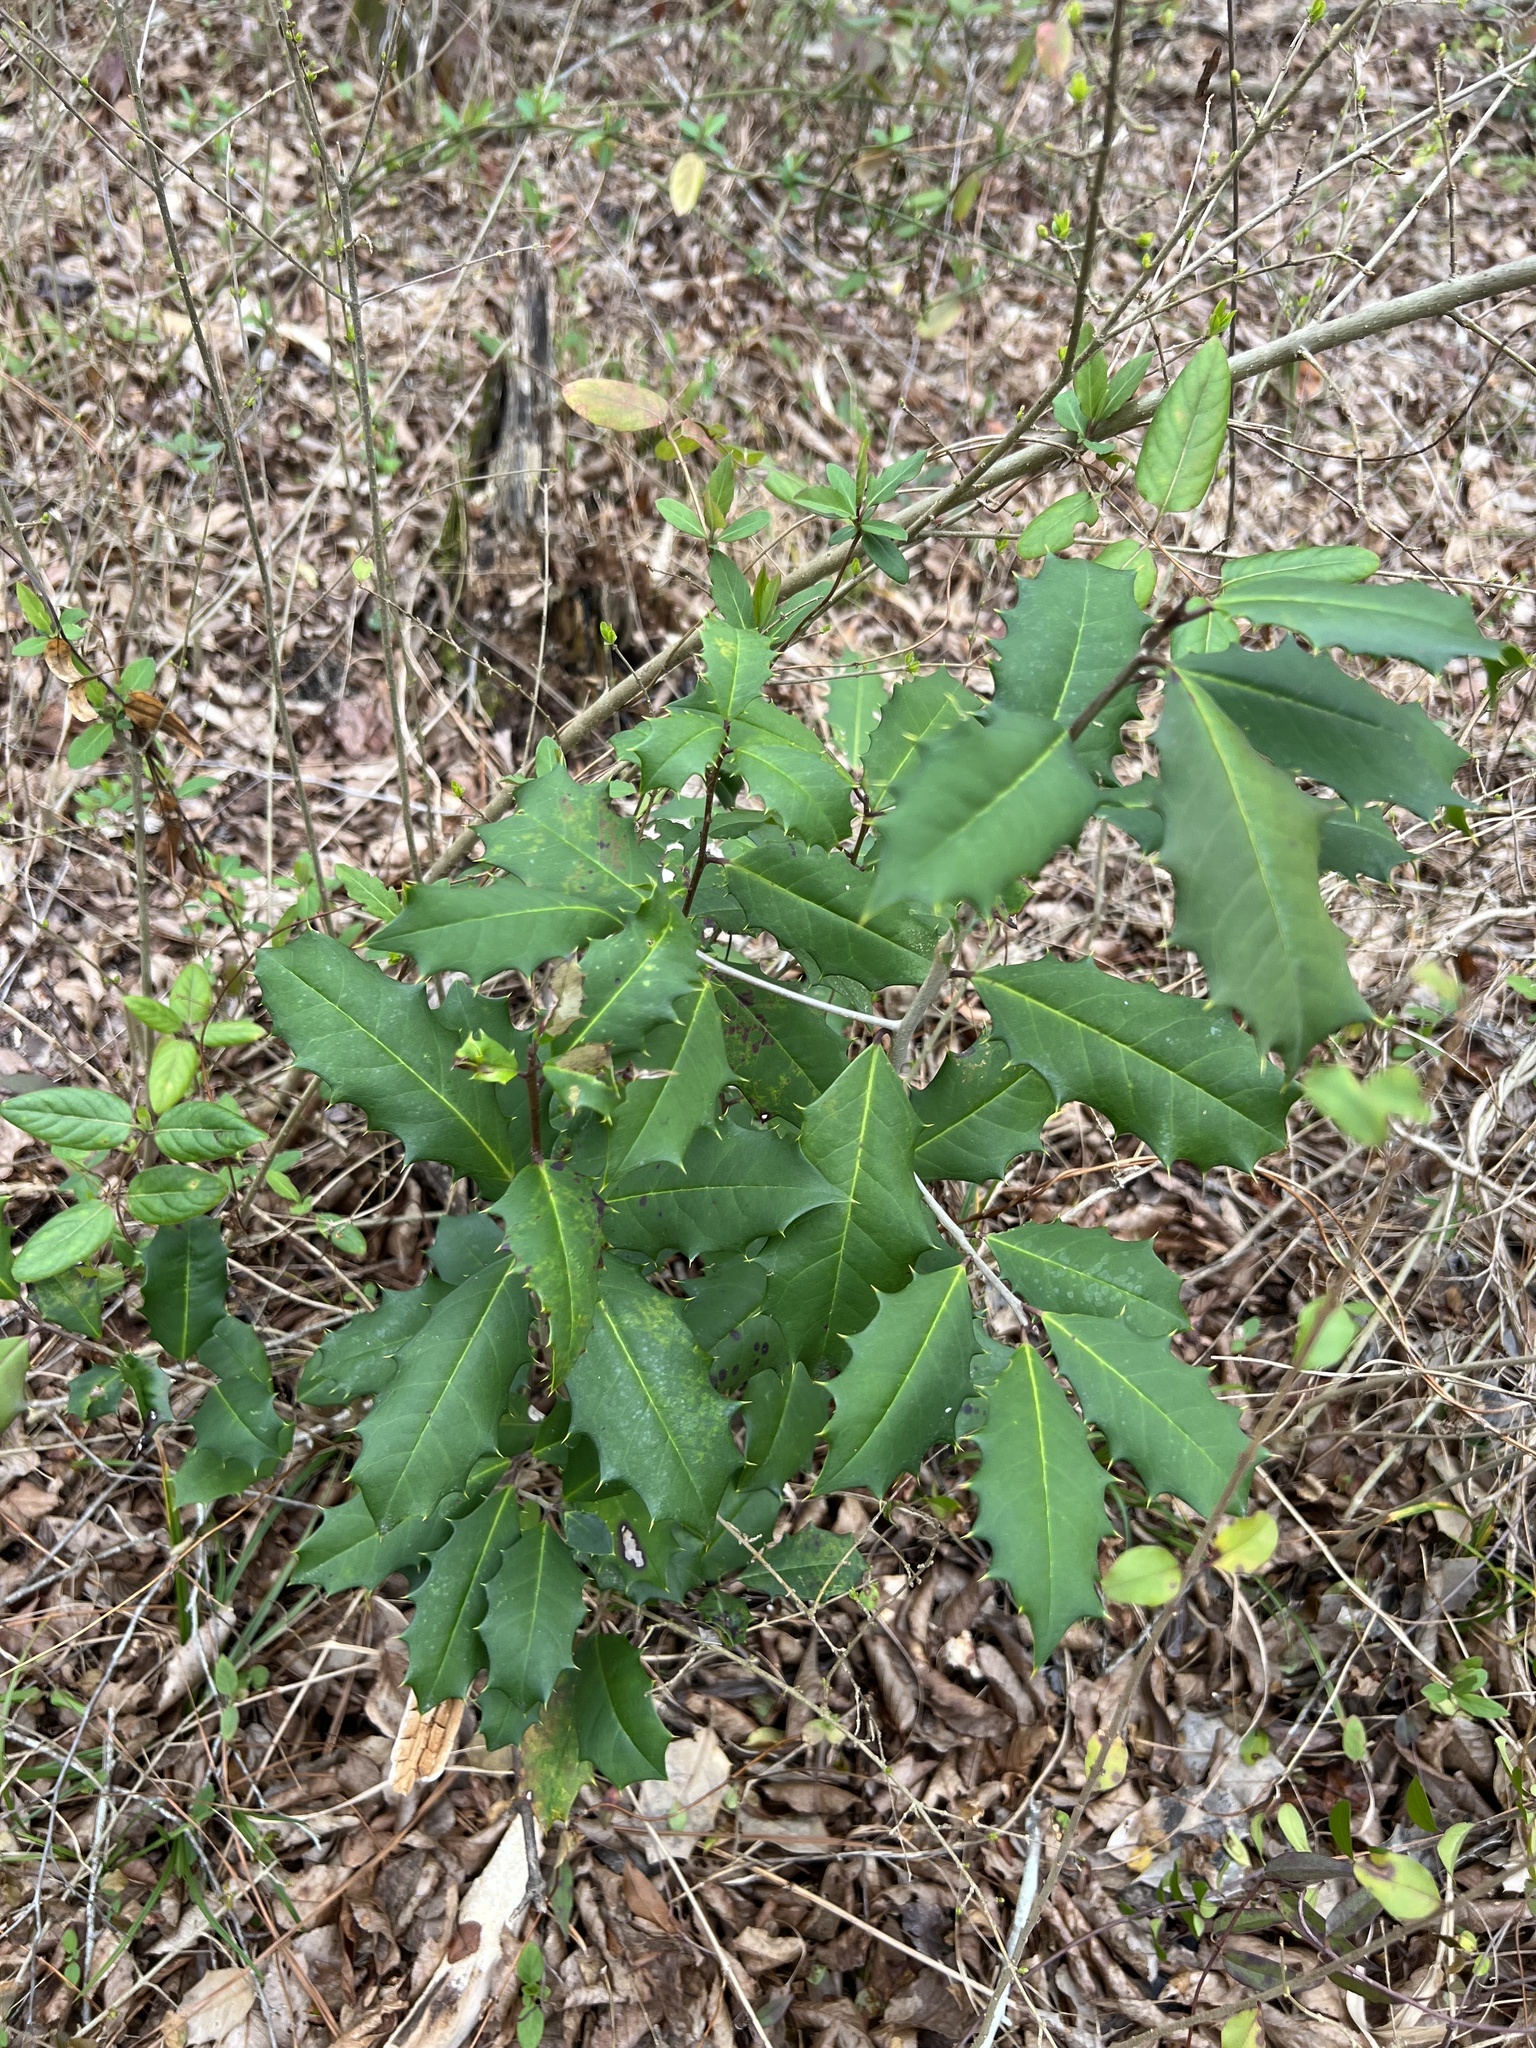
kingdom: Plantae
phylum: Tracheophyta
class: Magnoliopsida
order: Aquifoliales
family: Aquifoliaceae
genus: Ilex
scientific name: Ilex opaca
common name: American holly
